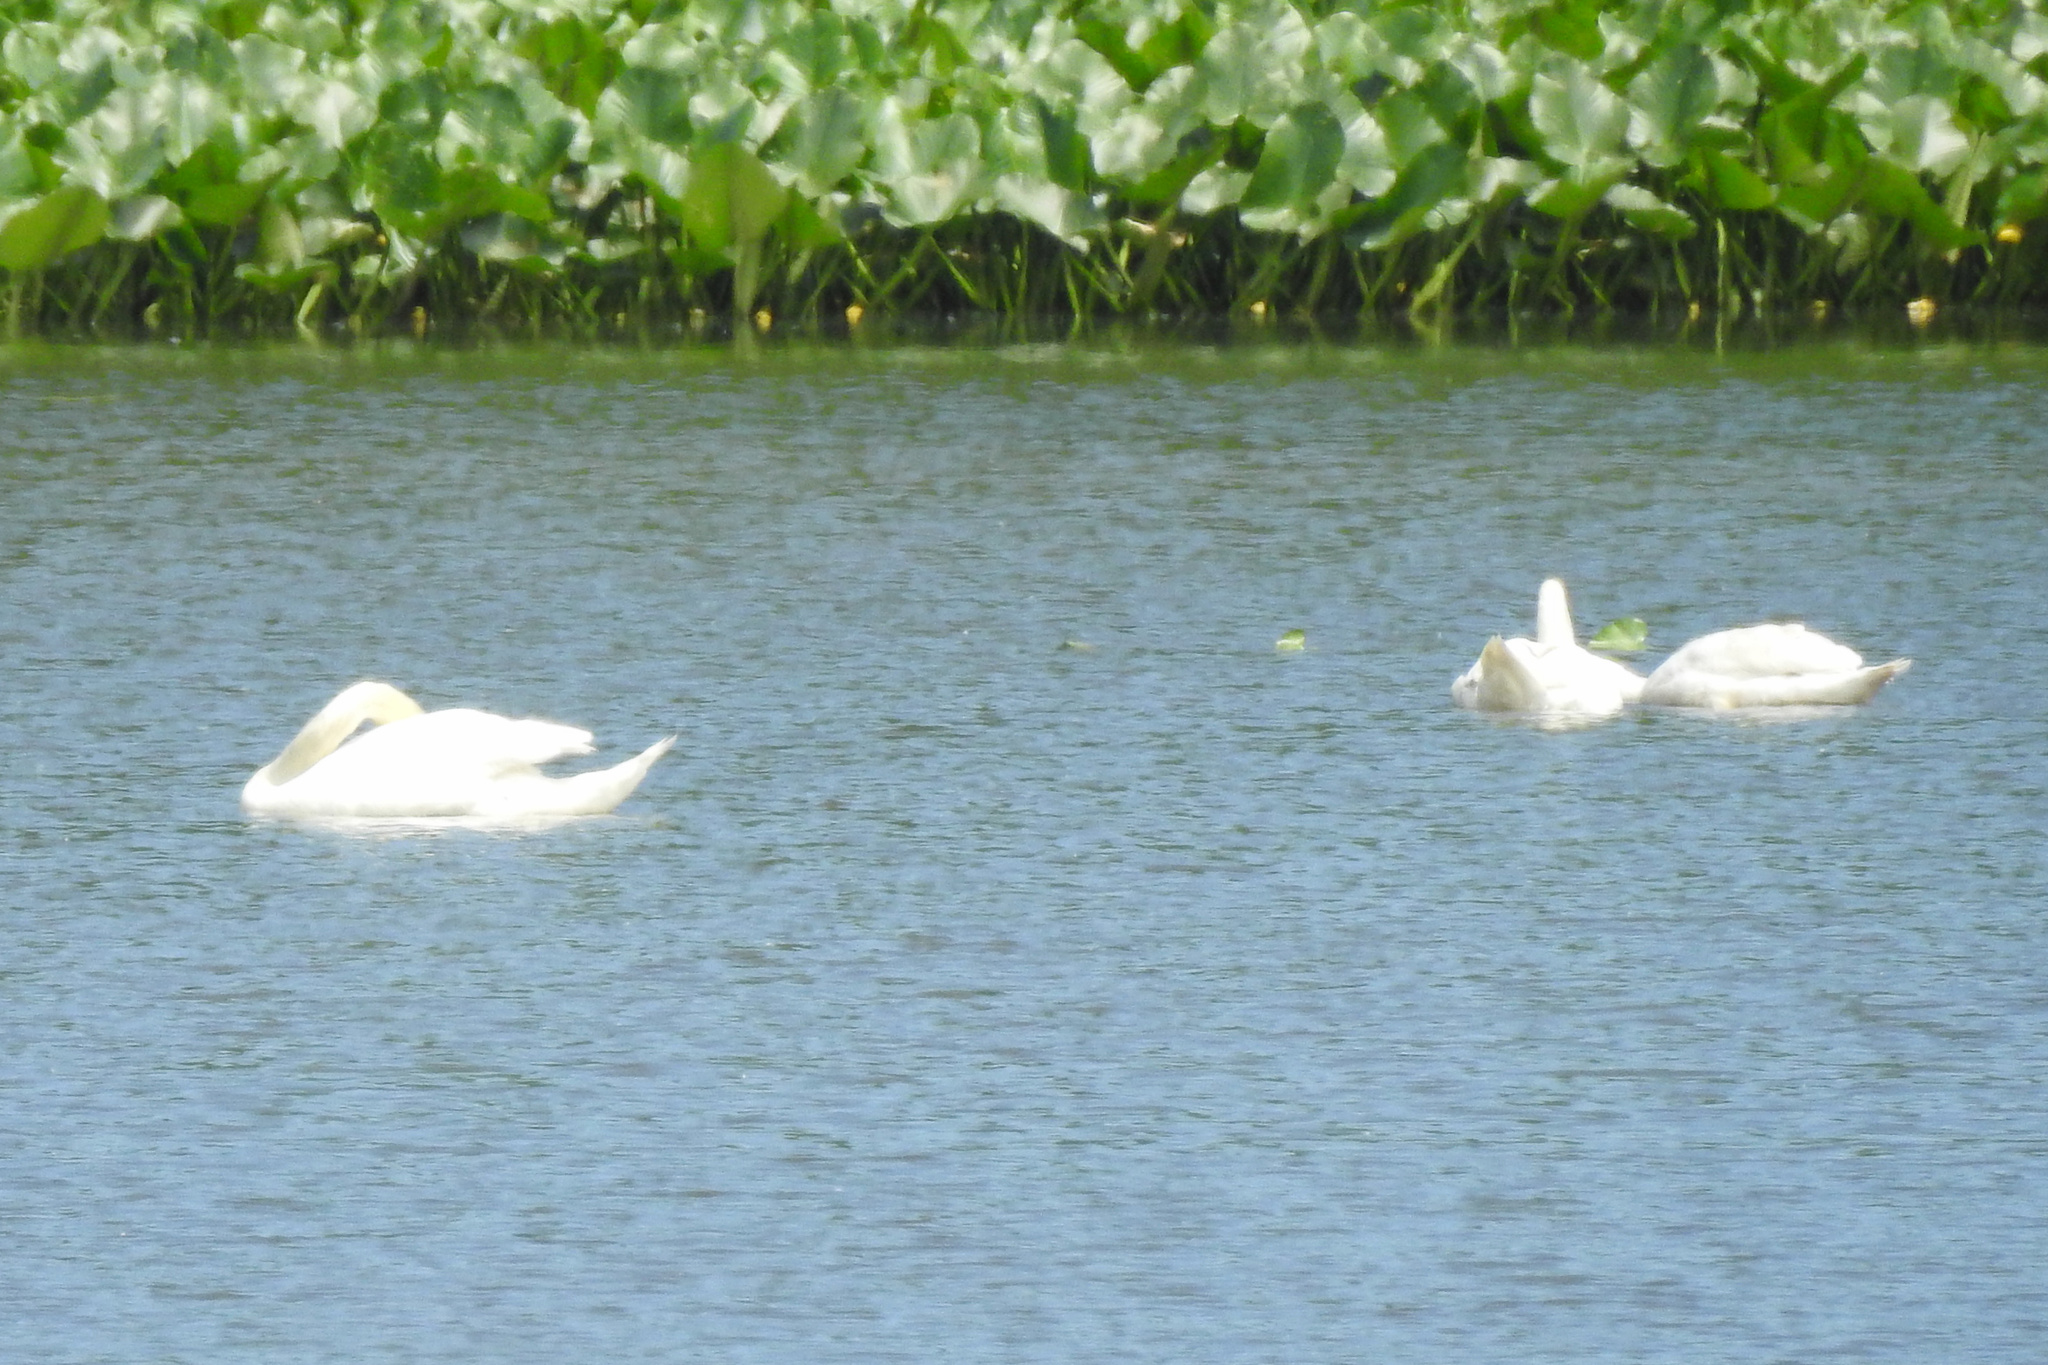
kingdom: Animalia
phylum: Chordata
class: Aves
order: Anseriformes
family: Anatidae
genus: Cygnus
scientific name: Cygnus olor
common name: Mute swan
